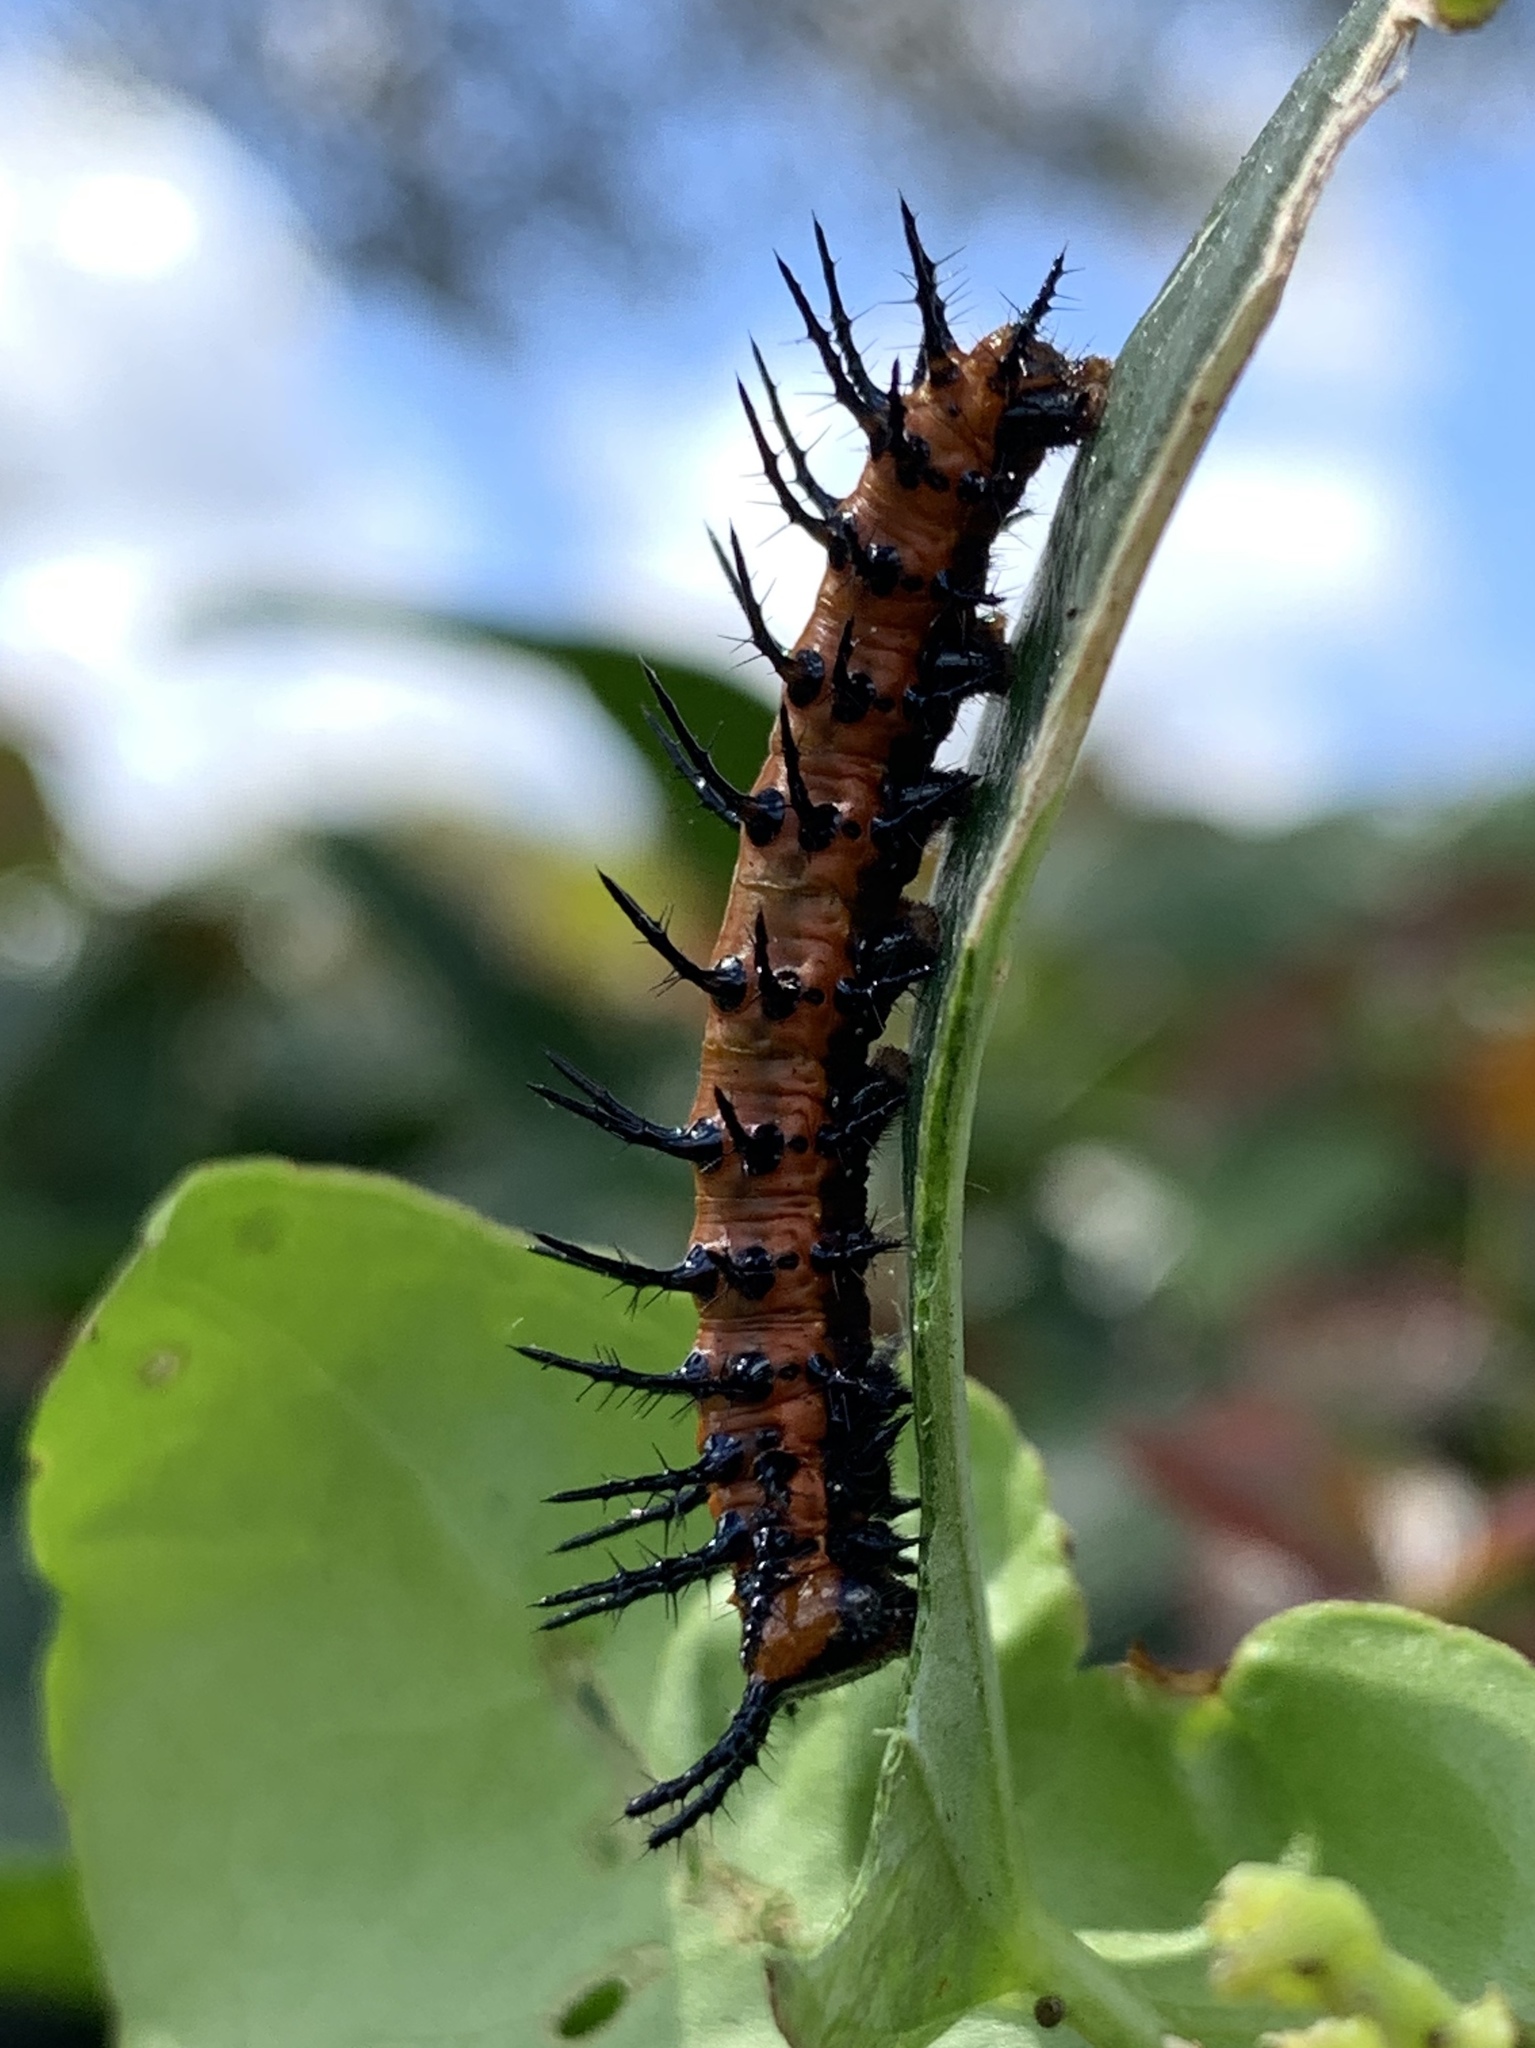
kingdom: Animalia
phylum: Arthropoda
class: Insecta
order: Lepidoptera
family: Nymphalidae
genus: Dione
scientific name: Dione vanillae
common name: Gulf fritillary
